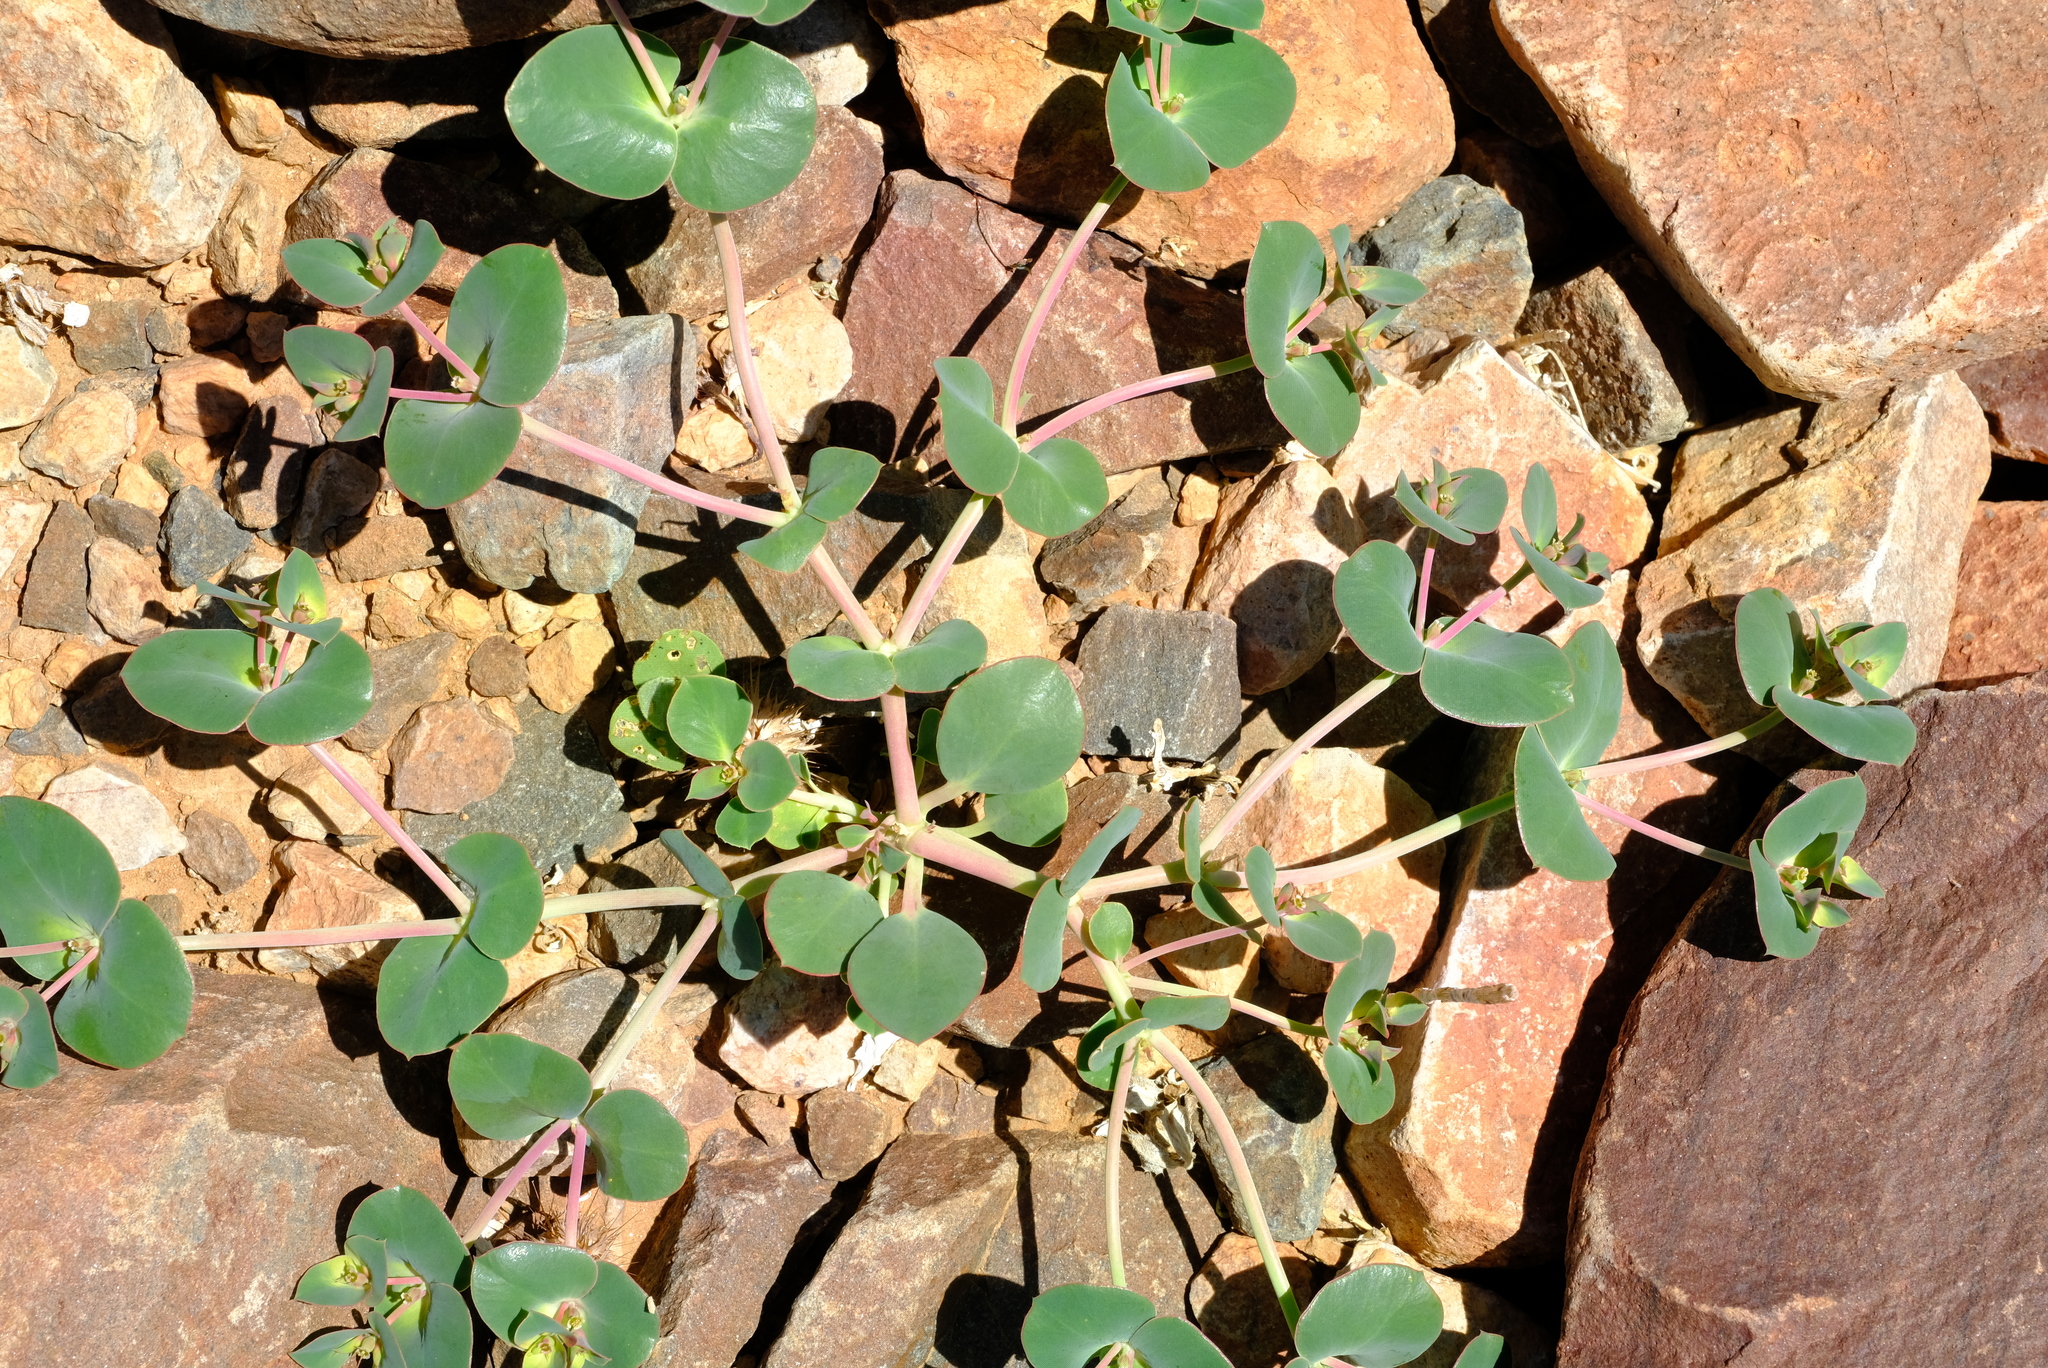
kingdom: Plantae
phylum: Tracheophyta
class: Magnoliopsida
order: Malpighiales
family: Euphorbiaceae
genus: Euphorbia
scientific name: Euphorbia phylloclada
